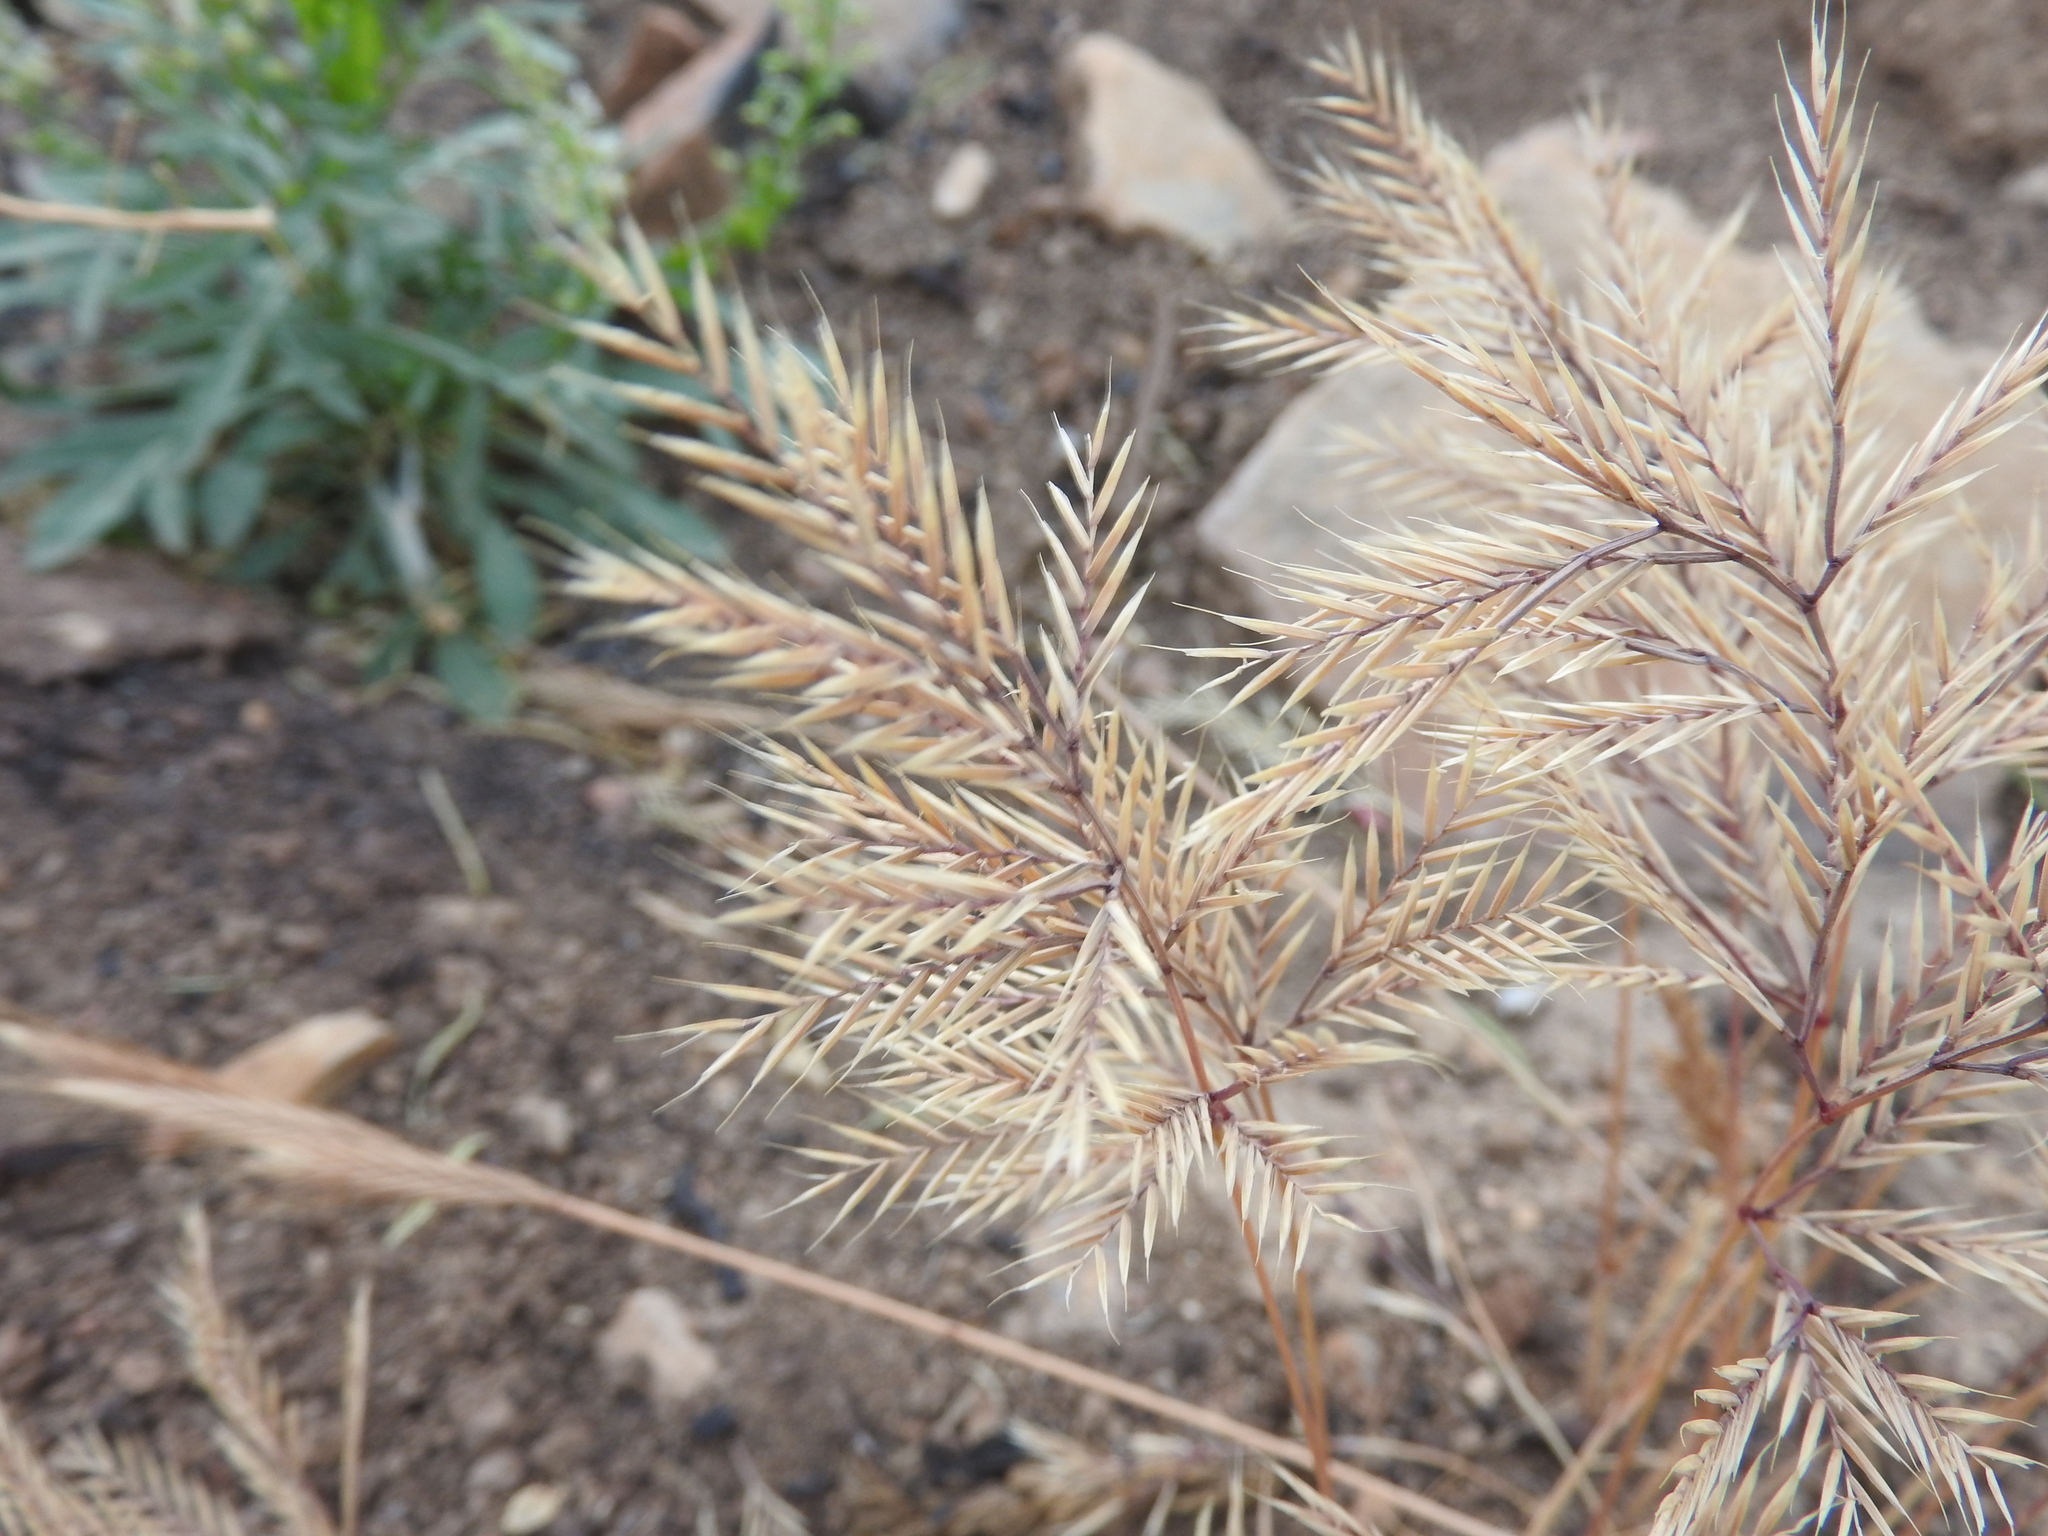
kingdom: Plantae
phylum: Tracheophyta
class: Liliopsida
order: Poales
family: Poaceae
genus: Vulpiella
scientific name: Vulpiella stipoides
